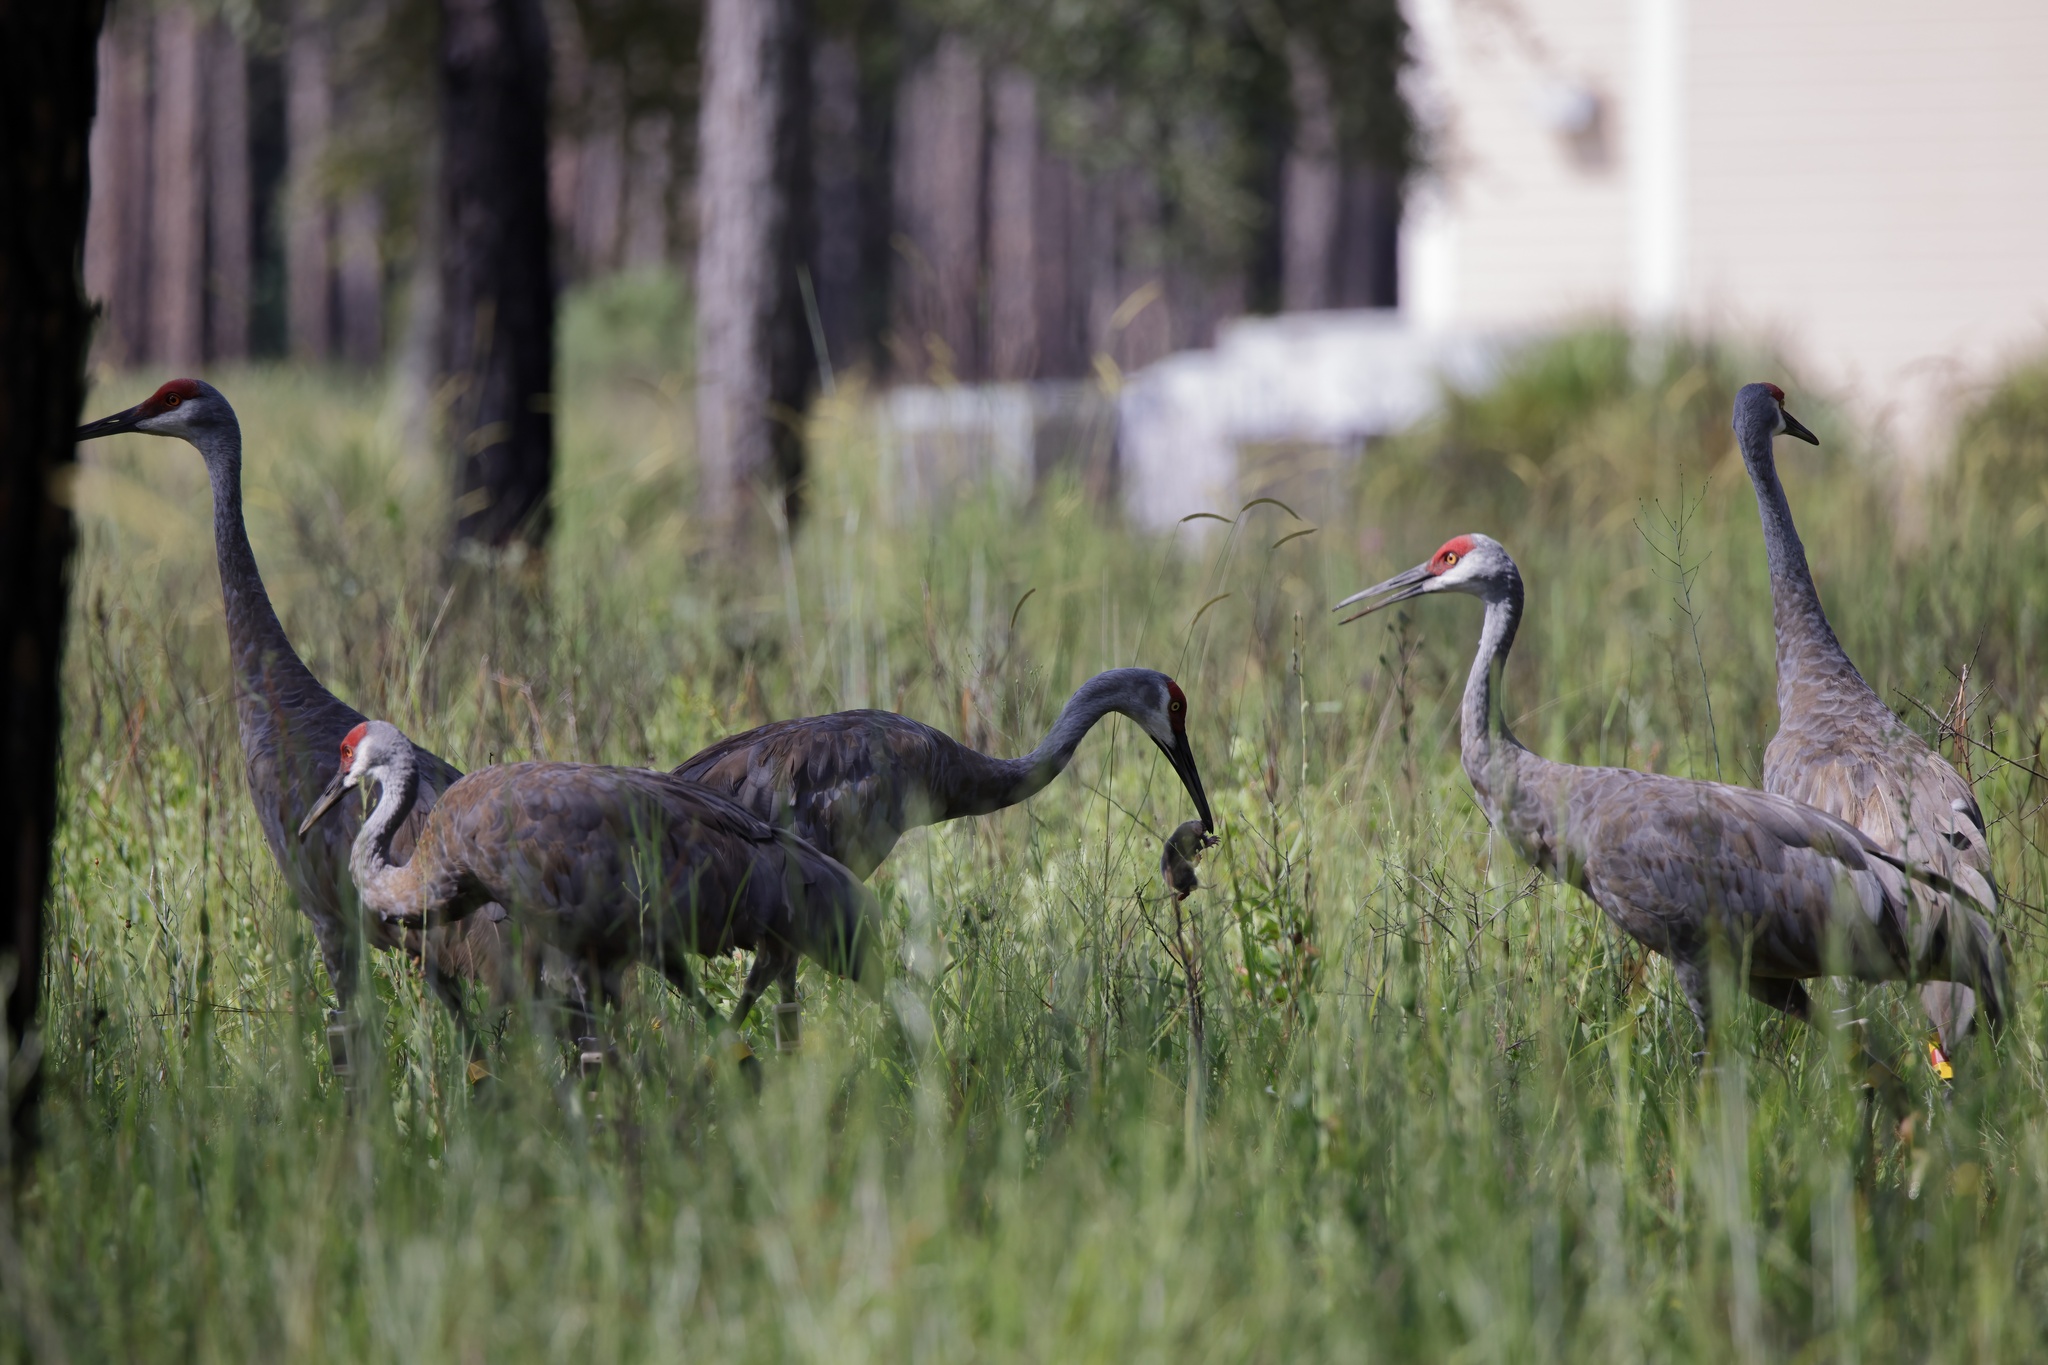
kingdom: Animalia
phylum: Chordata
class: Mammalia
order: Soricomorpha
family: Talpidae
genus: Scalopus
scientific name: Scalopus aquaticus
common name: Eastern mole
